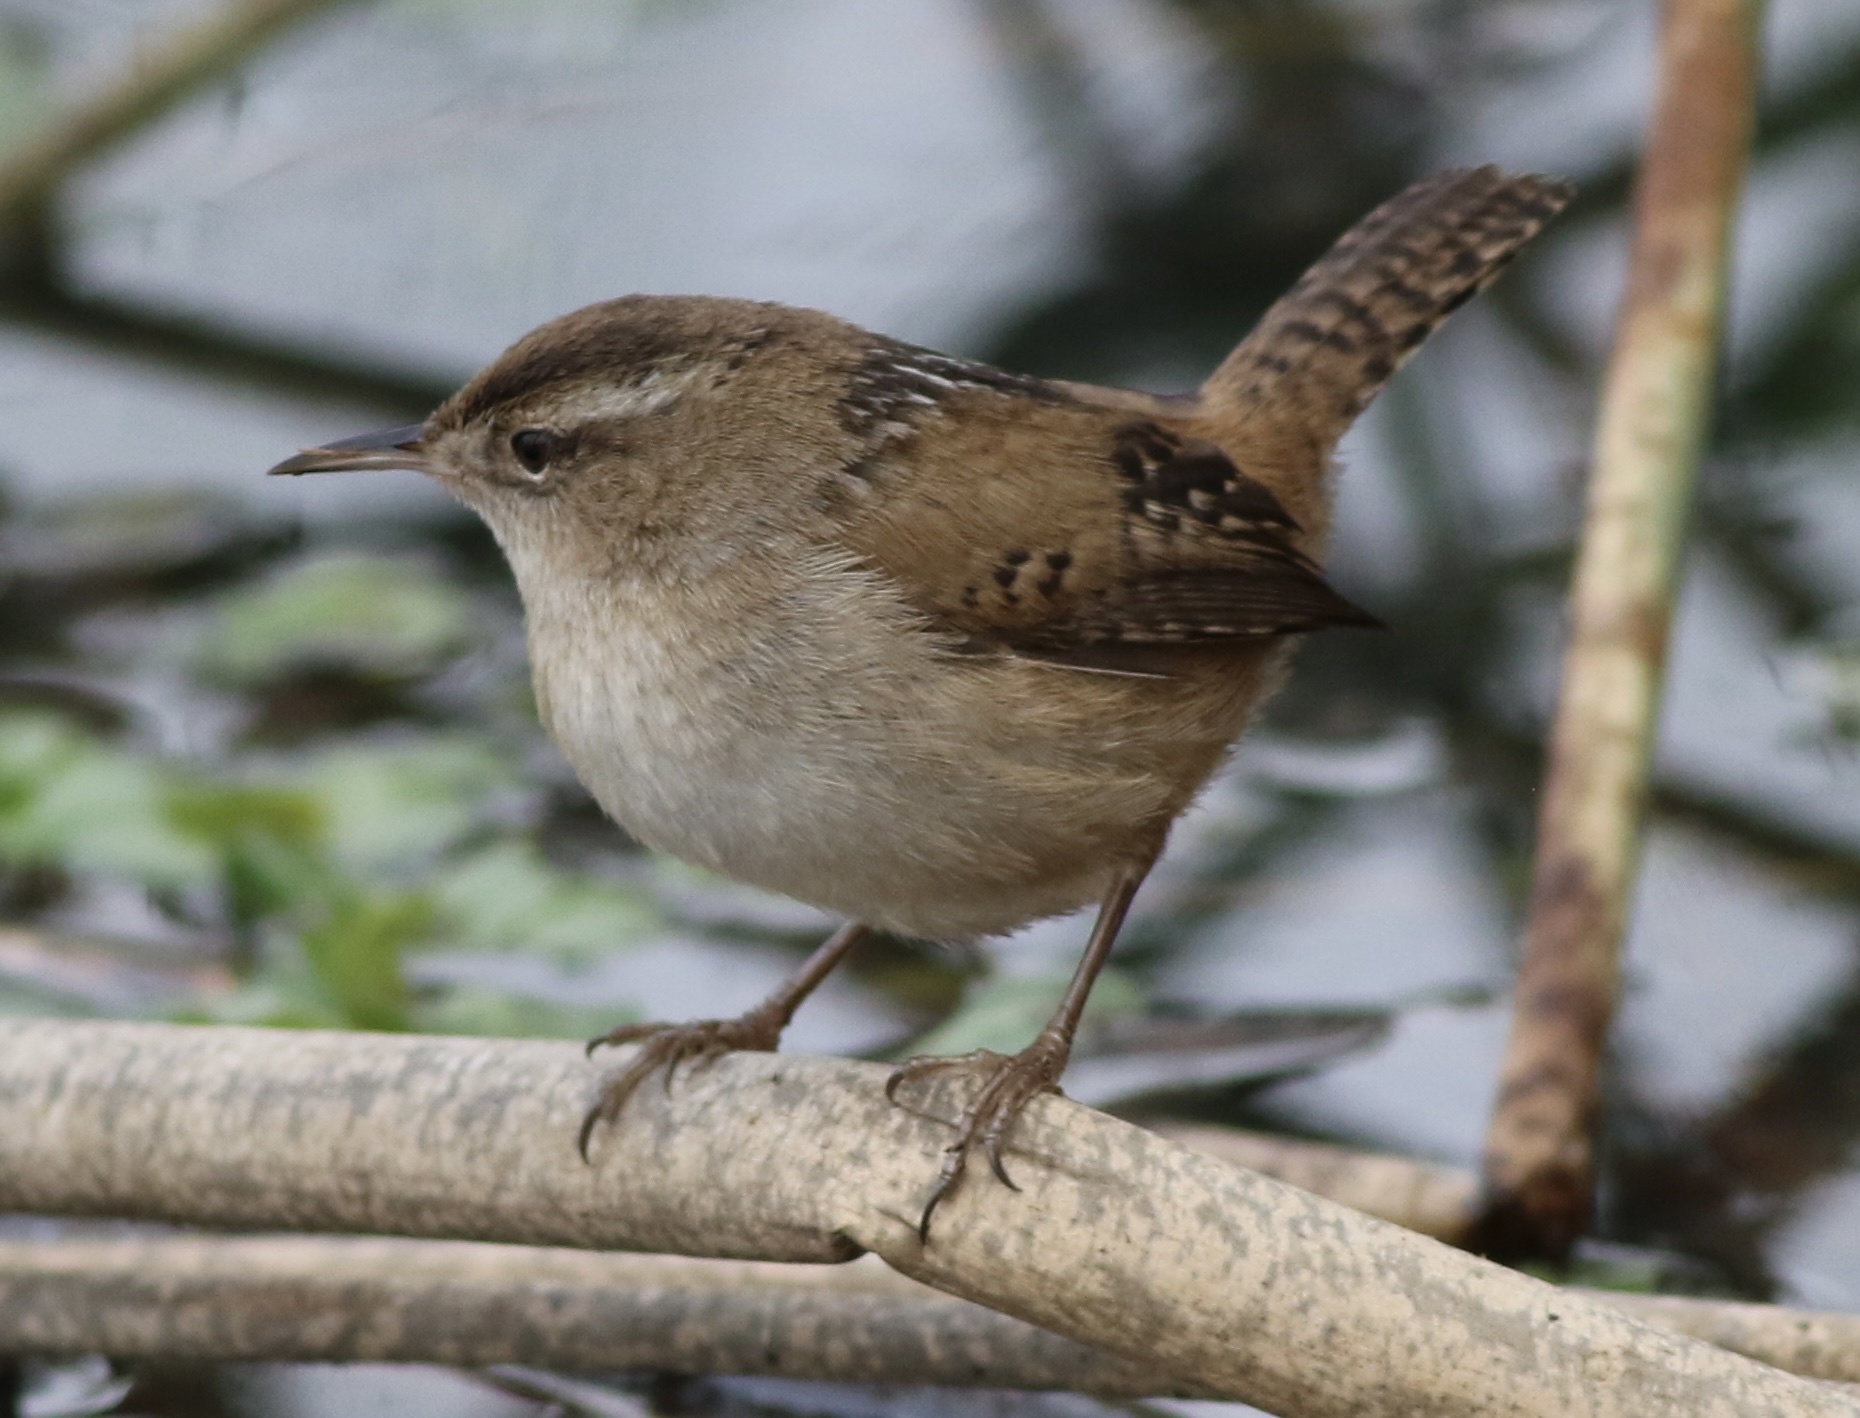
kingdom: Animalia
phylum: Chordata
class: Aves
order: Passeriformes
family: Troglodytidae
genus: Cistothorus
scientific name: Cistothorus palustris
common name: Marsh wren
